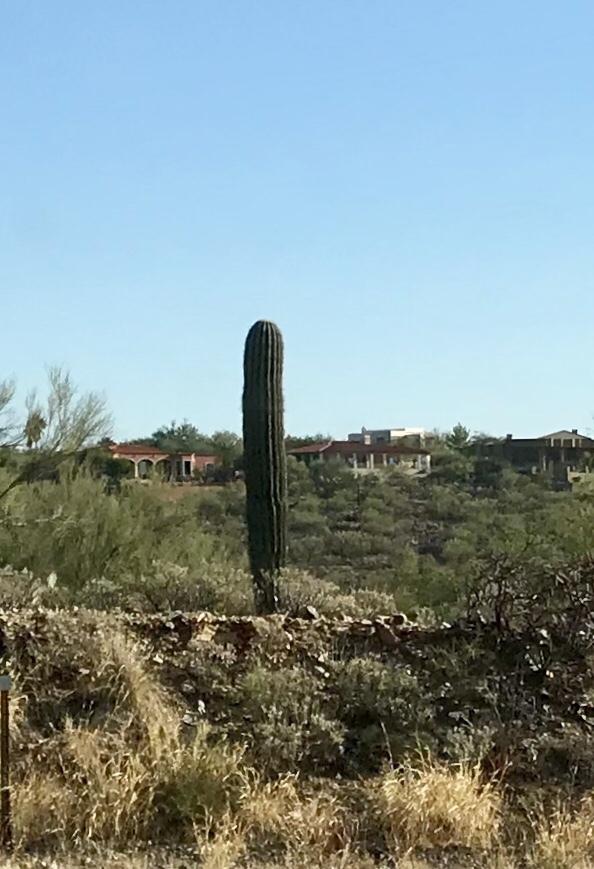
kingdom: Plantae
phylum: Tracheophyta
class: Magnoliopsida
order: Caryophyllales
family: Cactaceae
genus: Carnegiea
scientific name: Carnegiea gigantea
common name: Saguaro
